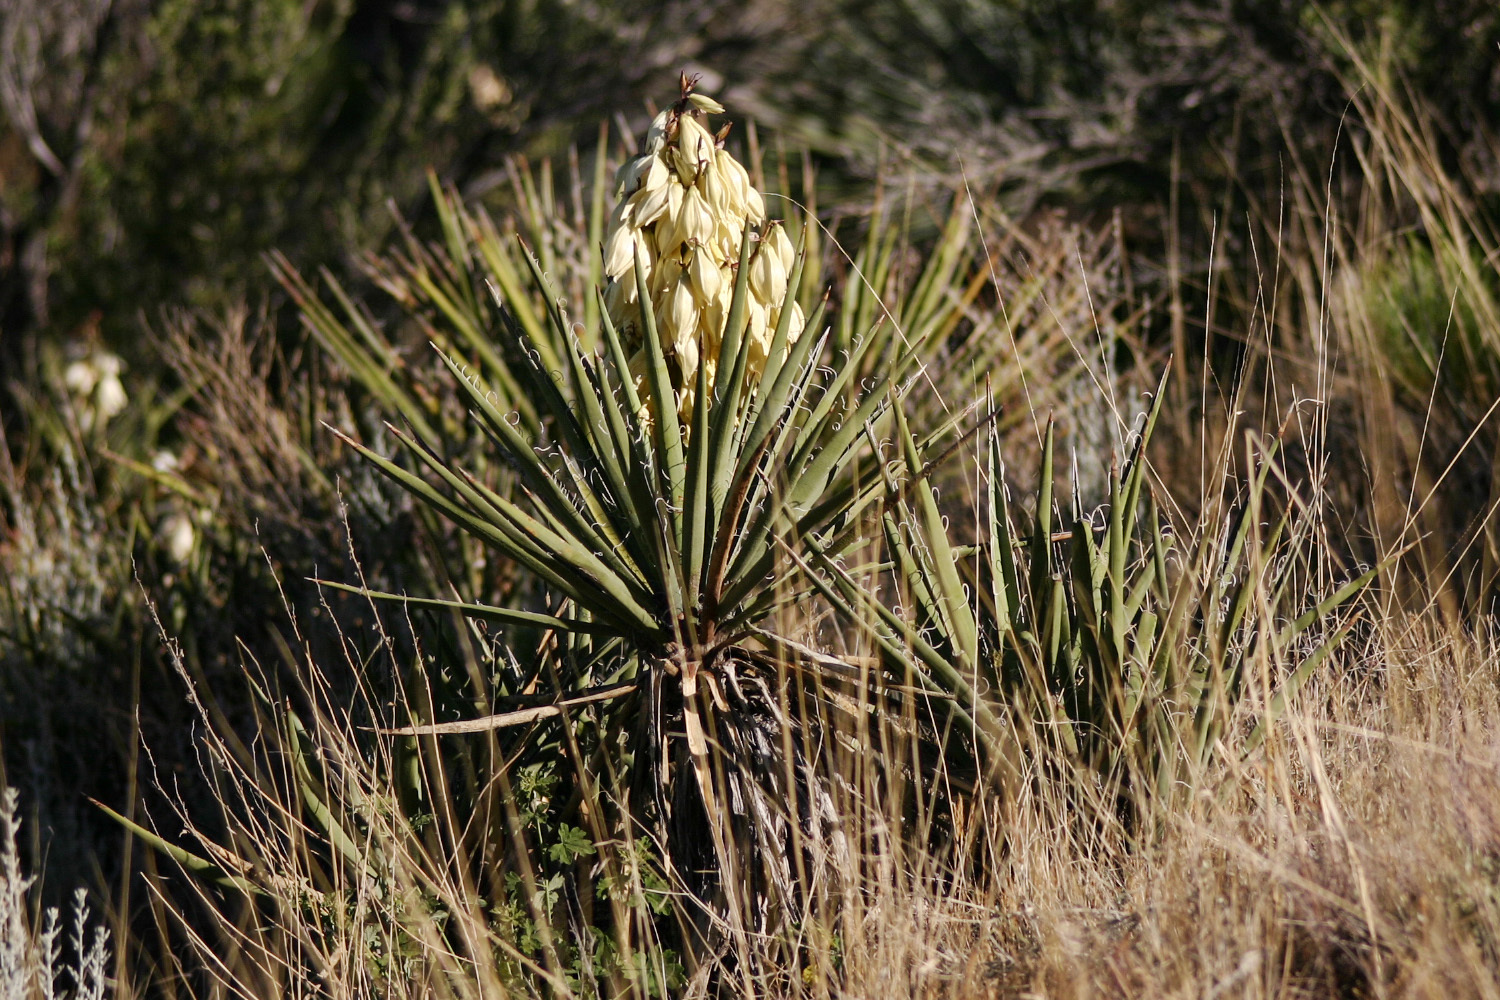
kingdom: Plantae
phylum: Tracheophyta
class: Liliopsida
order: Asparagales
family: Asparagaceae
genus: Yucca
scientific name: Yucca baccata
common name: Banana yucca
